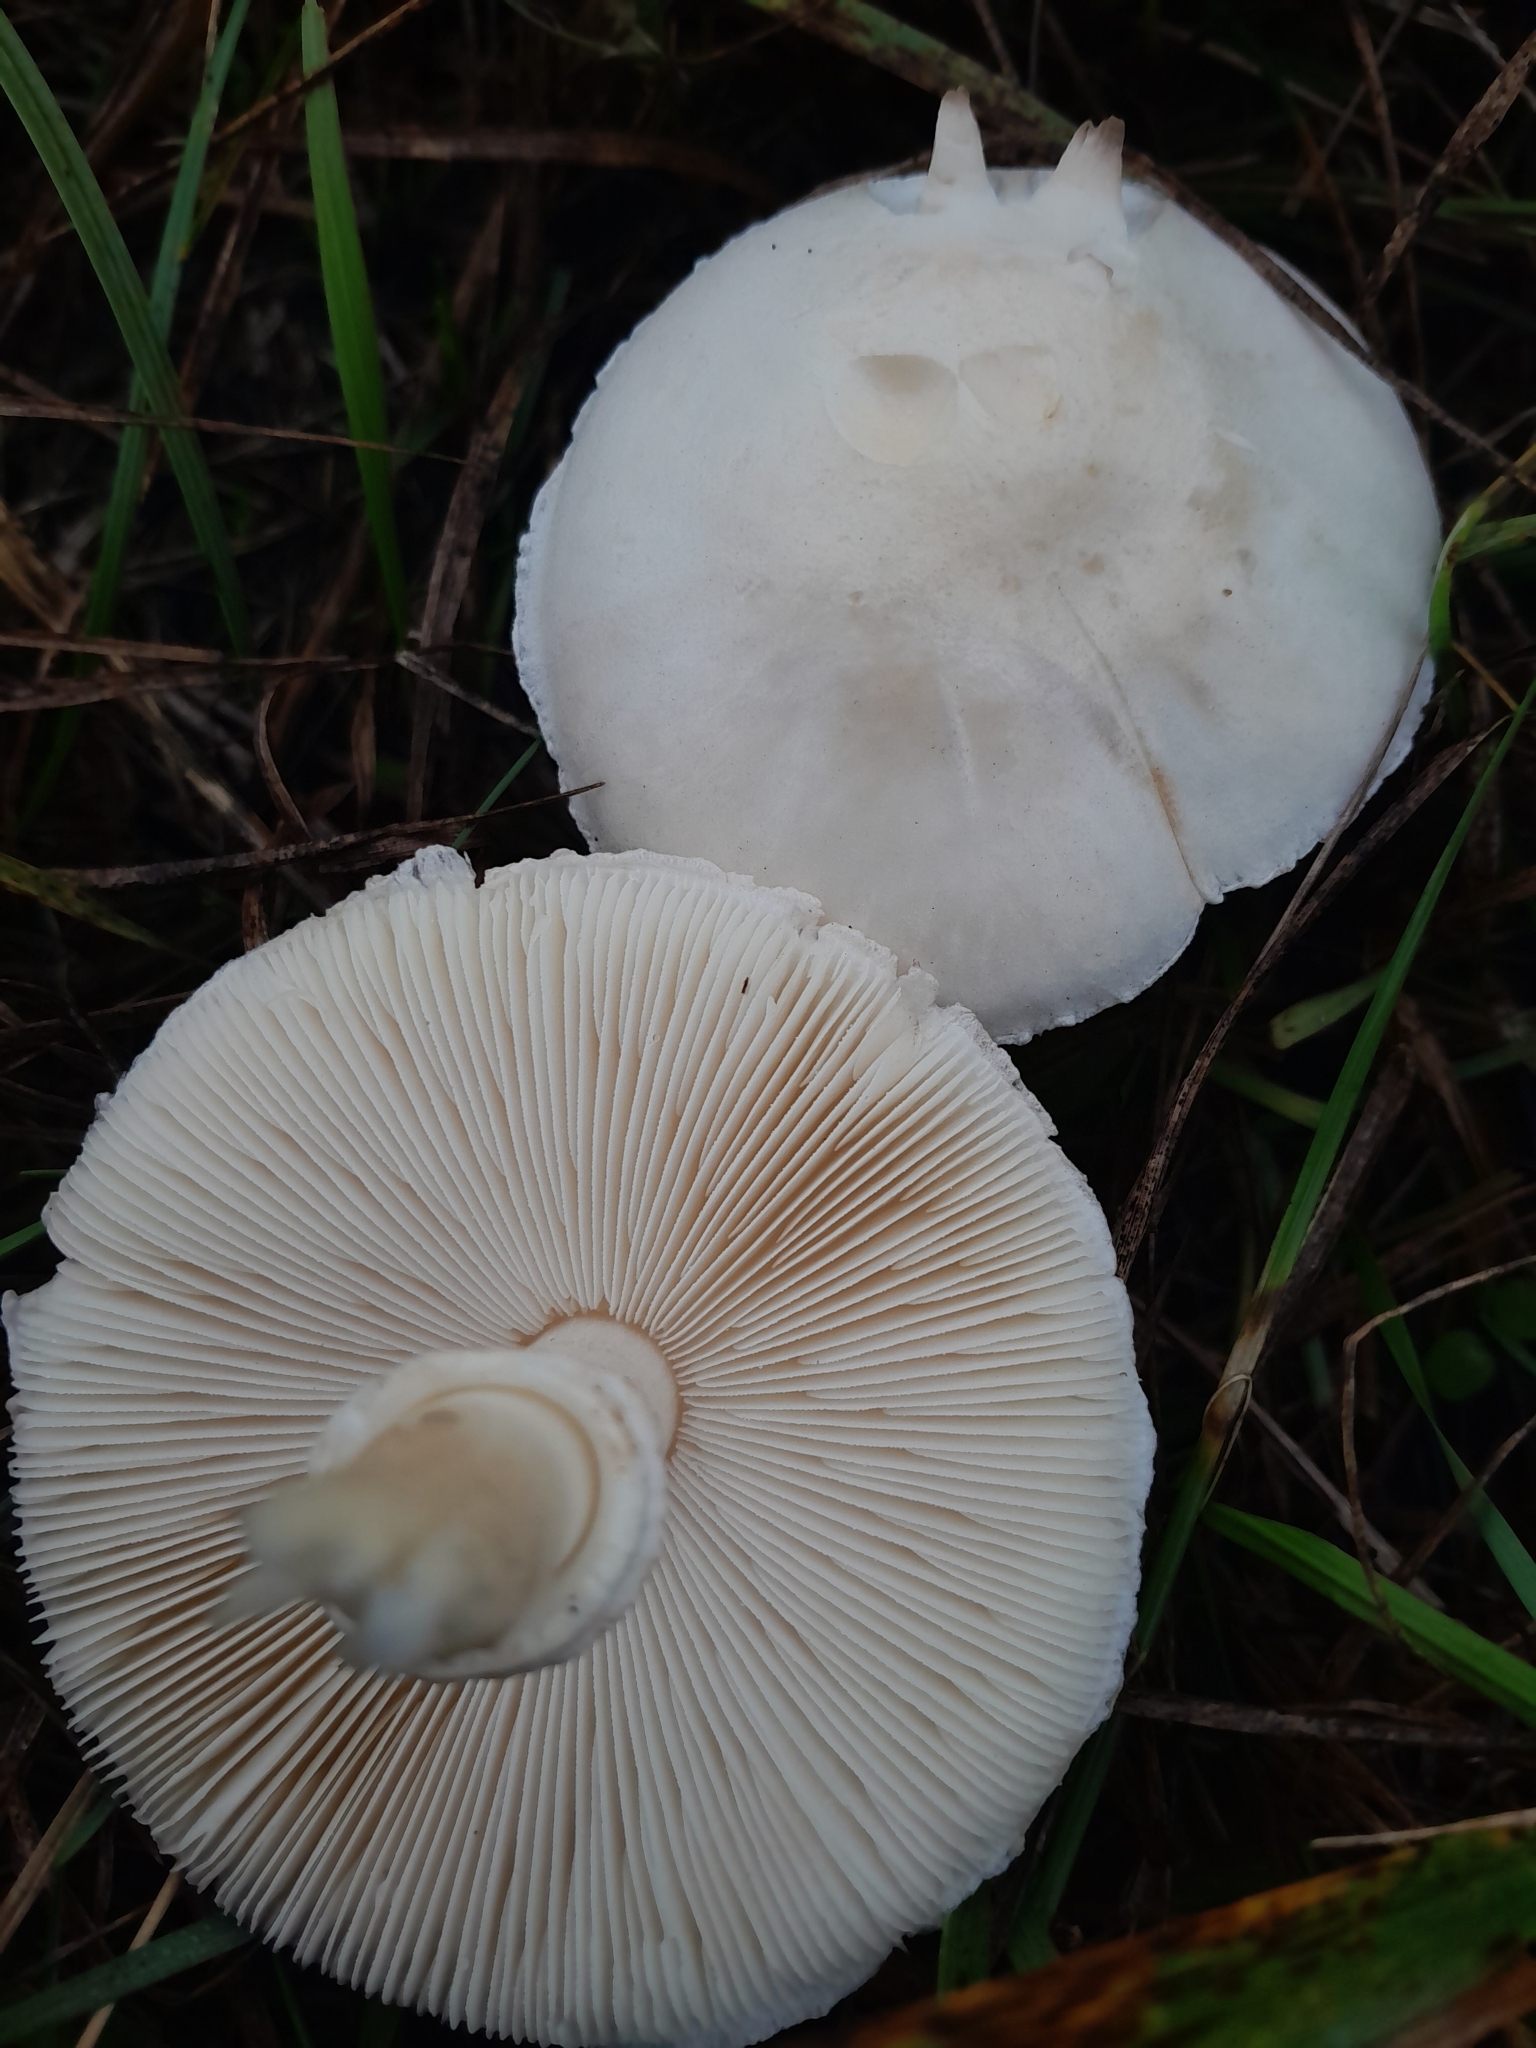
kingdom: Fungi
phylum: Basidiomycota
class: Agaricomycetes
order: Agaricales
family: Agaricaceae
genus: Leucoagaricus
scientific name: Leucoagaricus leucothites
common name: White dapperling
